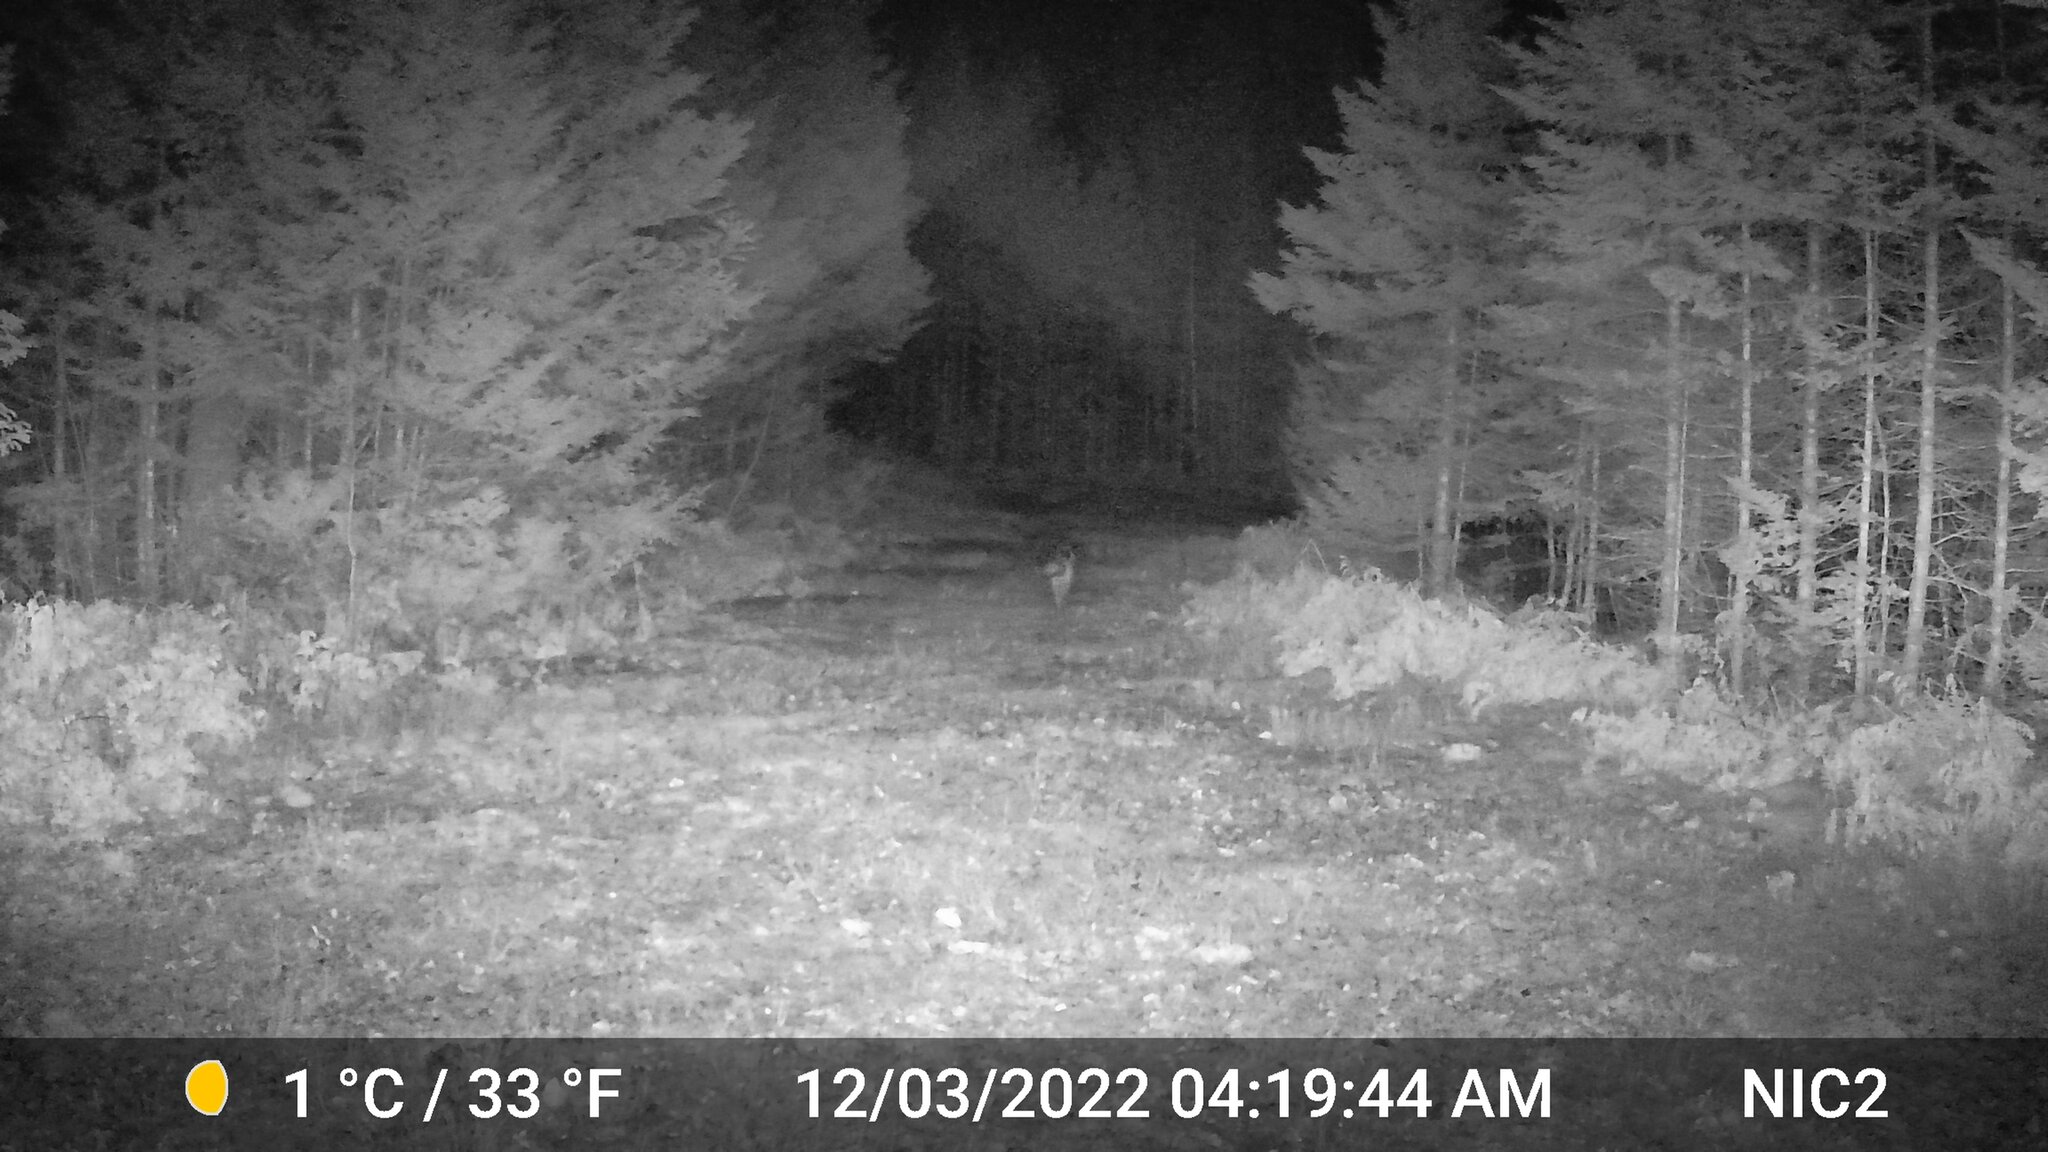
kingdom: Animalia
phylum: Chordata
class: Mammalia
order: Carnivora
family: Canidae
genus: Vulpes
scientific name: Vulpes vulpes
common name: Red fox
